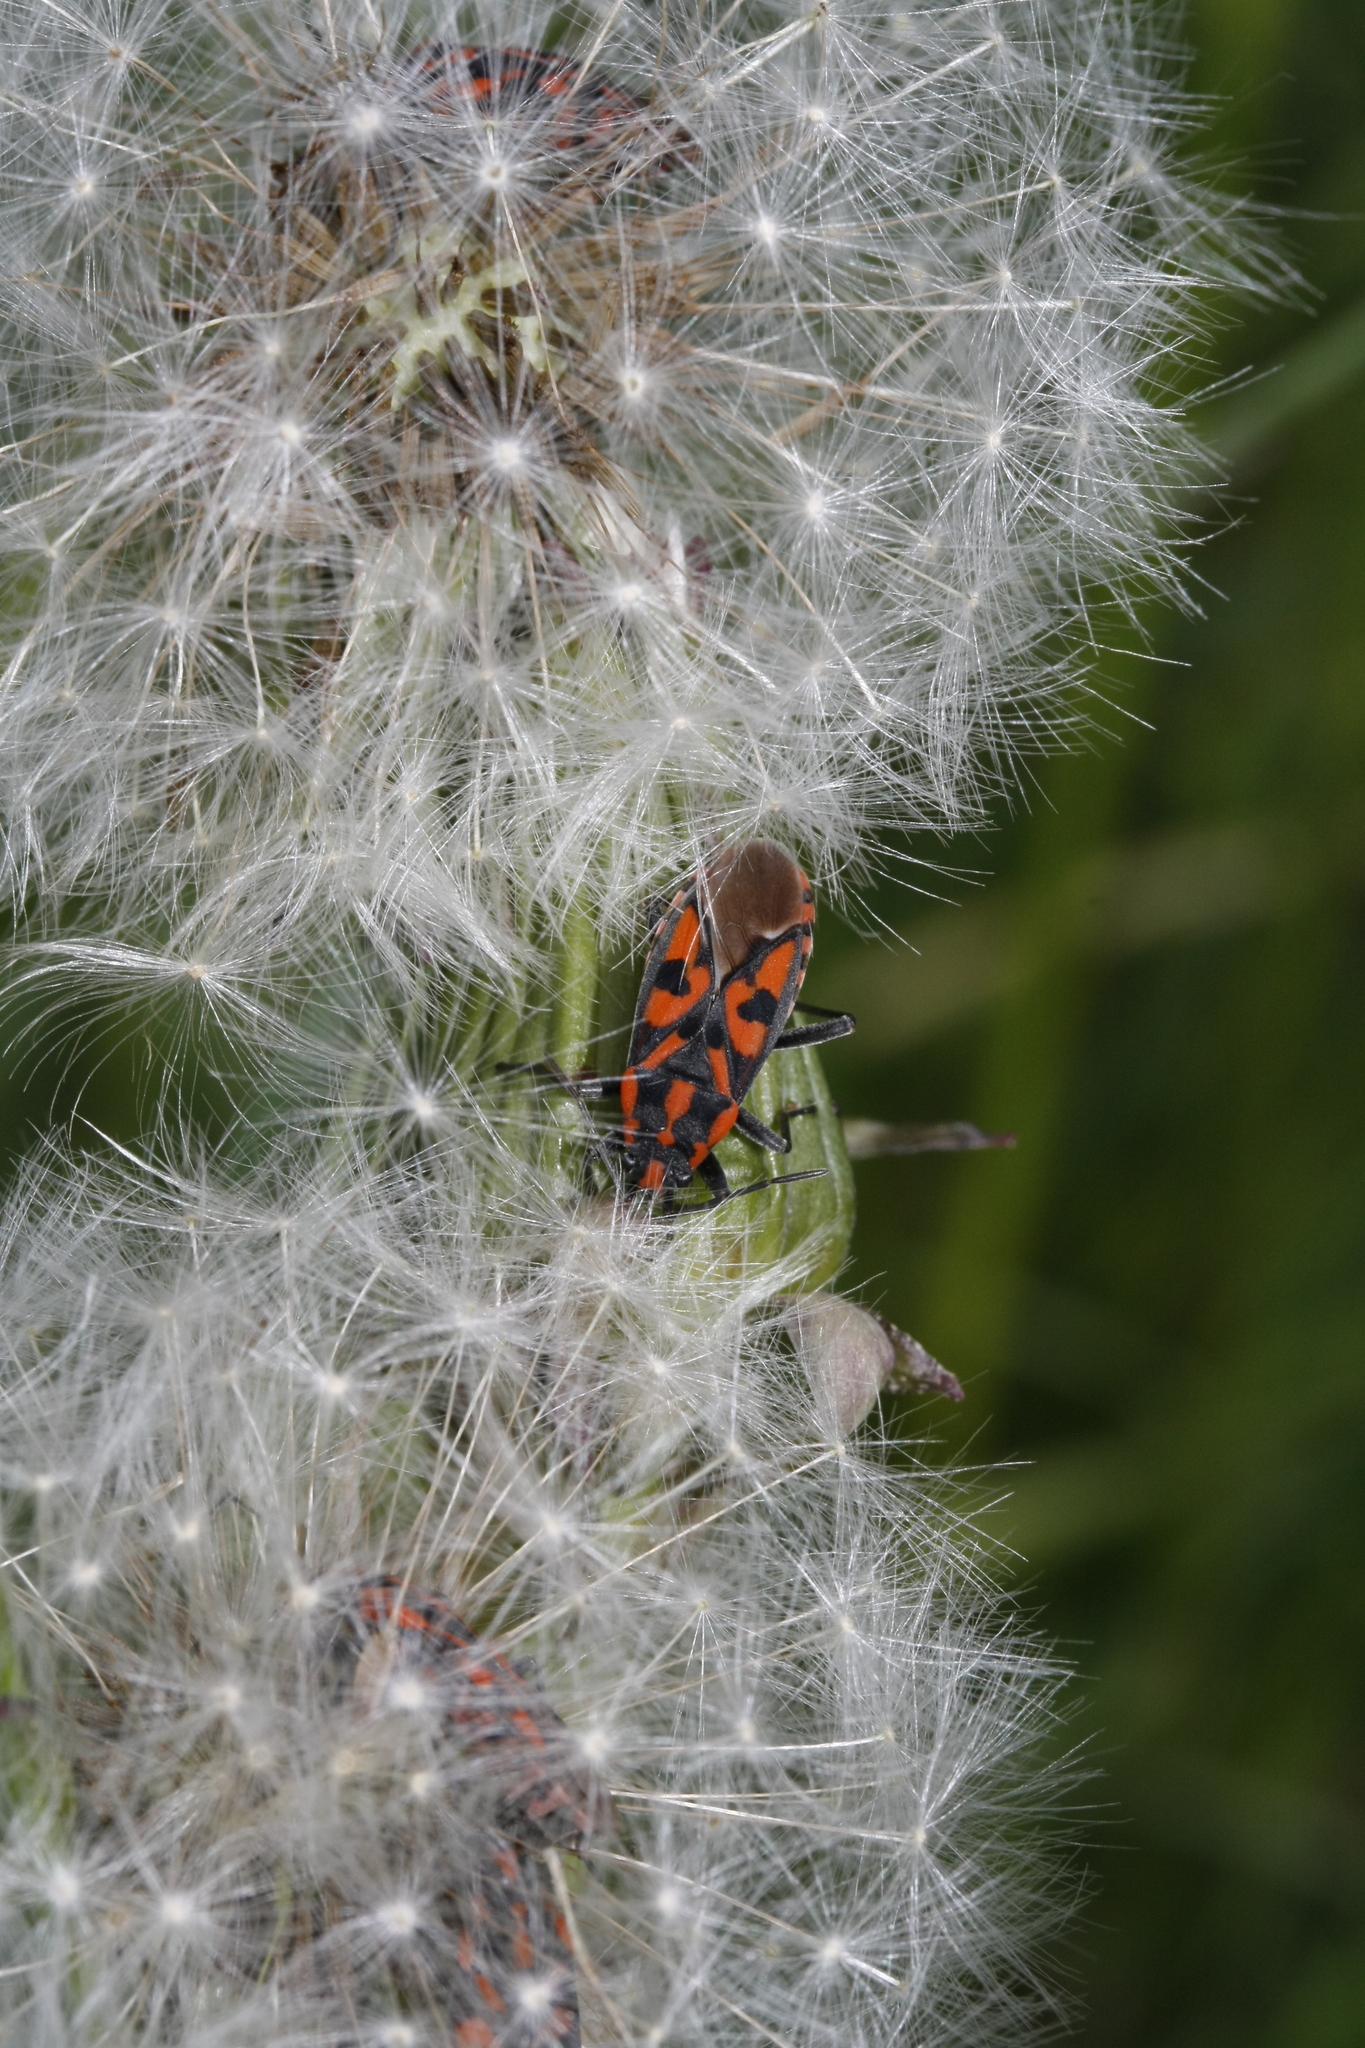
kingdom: Animalia
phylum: Arthropoda
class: Insecta
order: Hemiptera
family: Lygaeidae
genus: Spilostethus
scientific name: Spilostethus saxatilis
